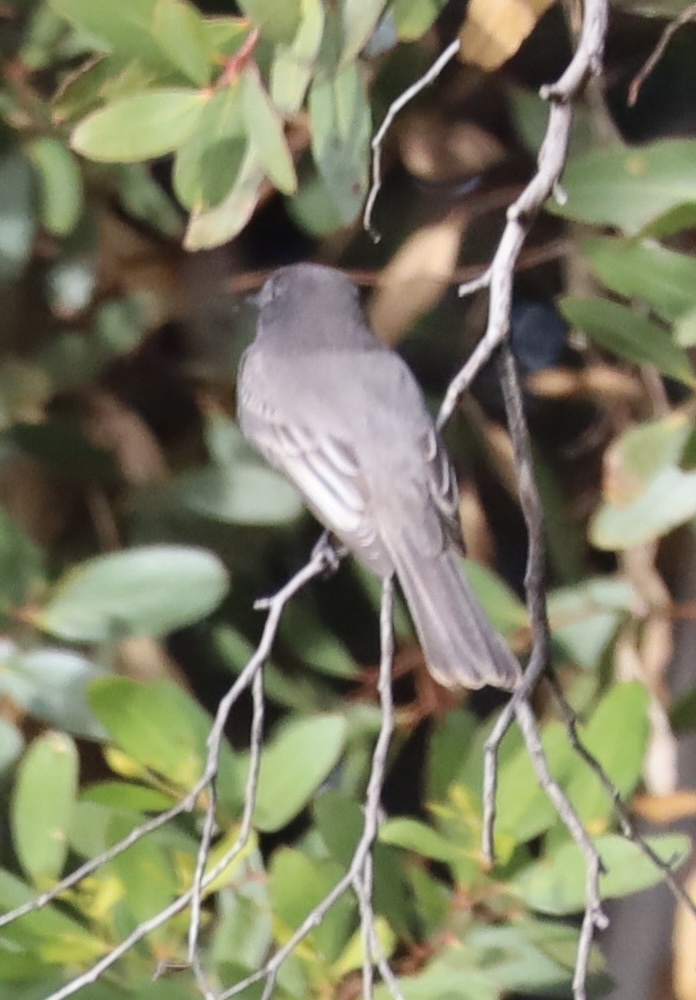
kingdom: Animalia
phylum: Chordata
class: Aves
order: Passeriformes
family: Tyrannidae
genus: Sayornis
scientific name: Sayornis nigricans
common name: Black phoebe
